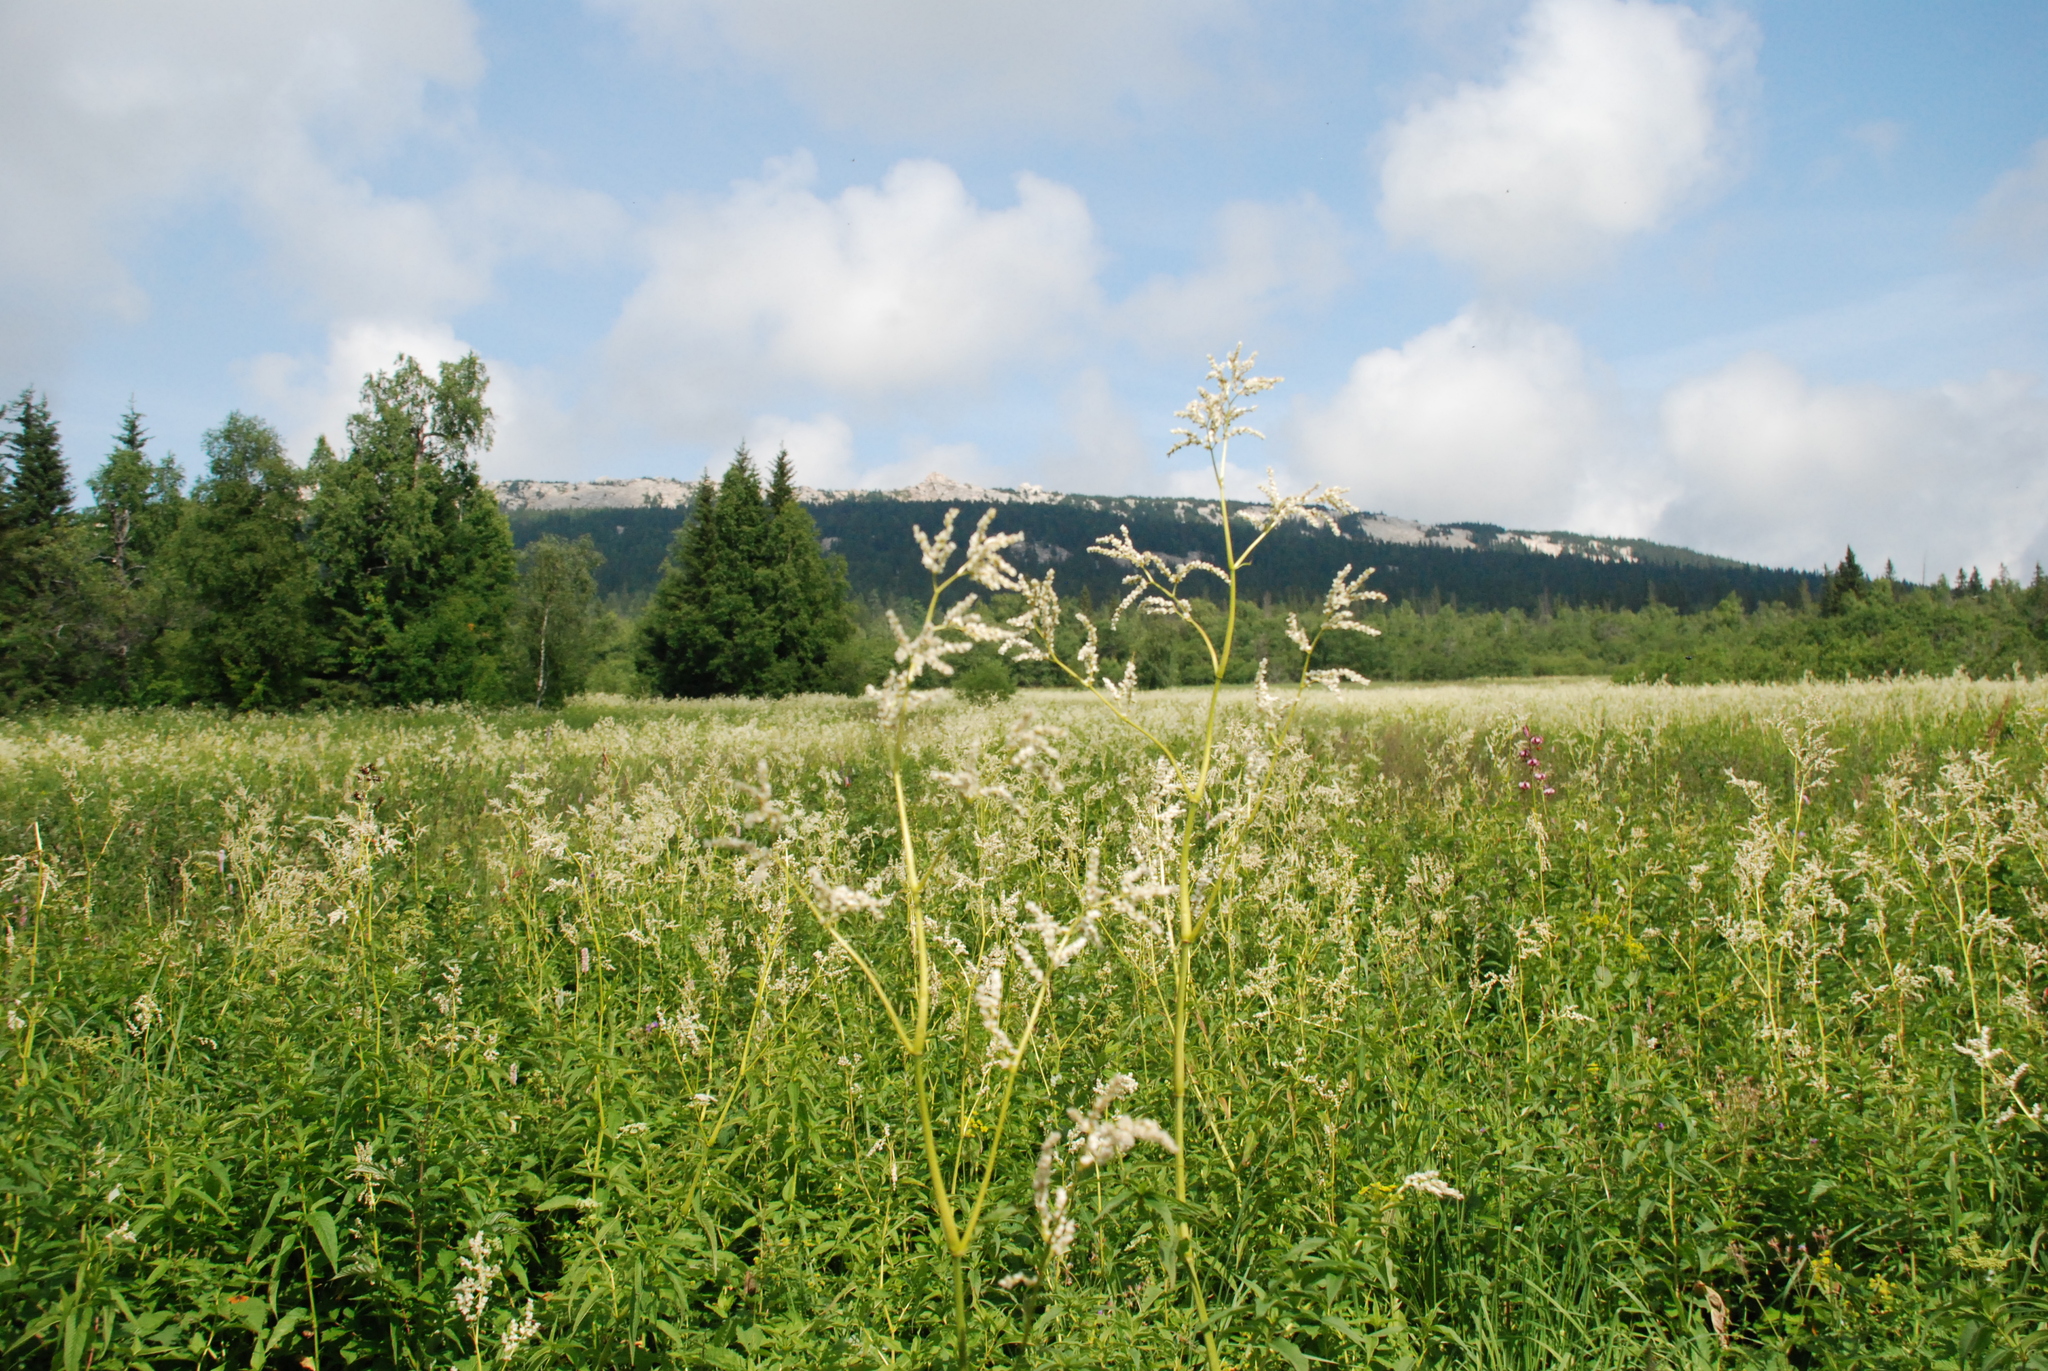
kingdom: Plantae
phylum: Tracheophyta
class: Magnoliopsida
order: Caryophyllales
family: Polygonaceae
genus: Koenigia
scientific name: Koenigia alpina
